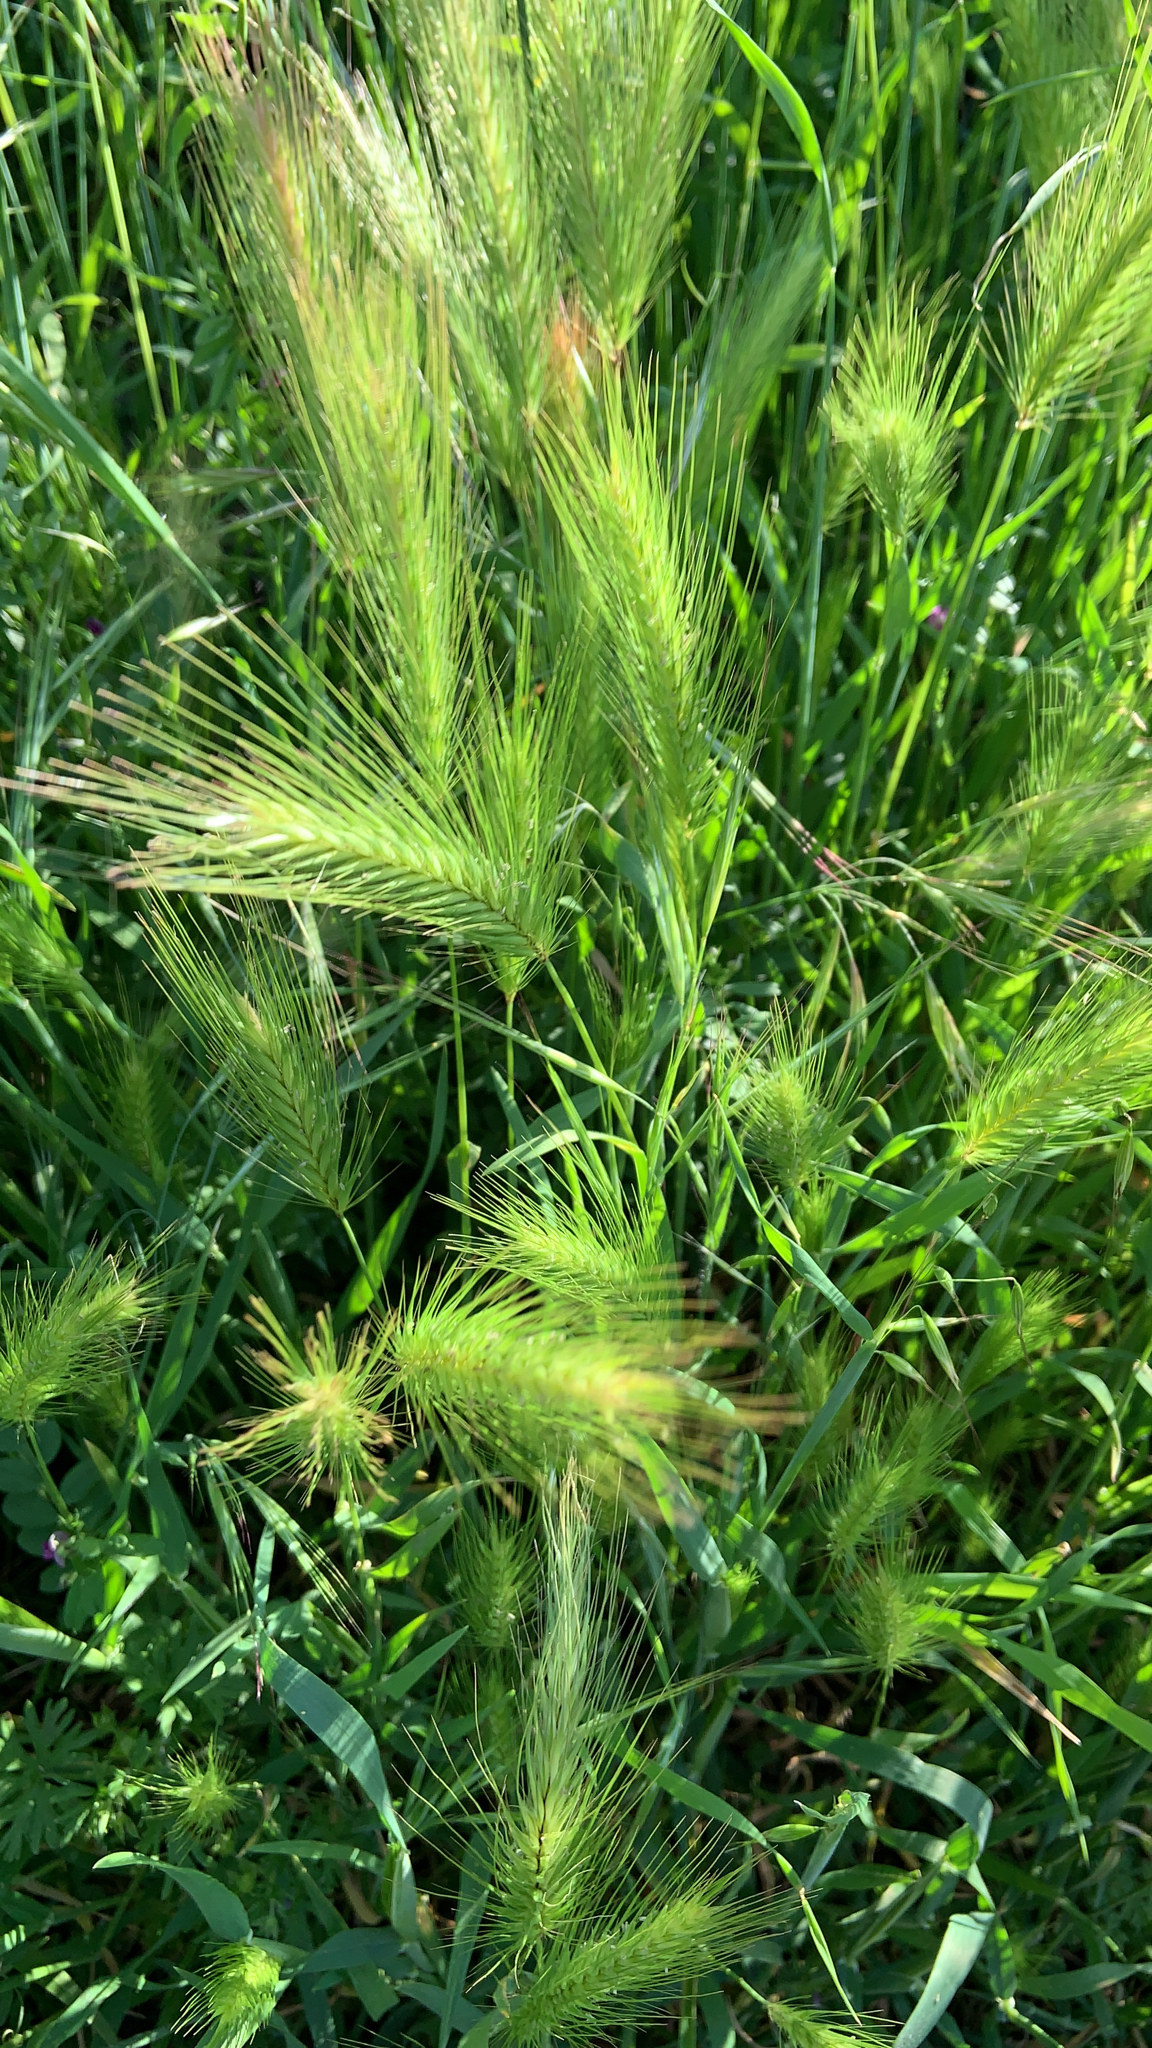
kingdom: Plantae
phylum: Tracheophyta
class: Liliopsida
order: Poales
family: Poaceae
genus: Hordeum
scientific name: Hordeum murinum
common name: Wall barley
